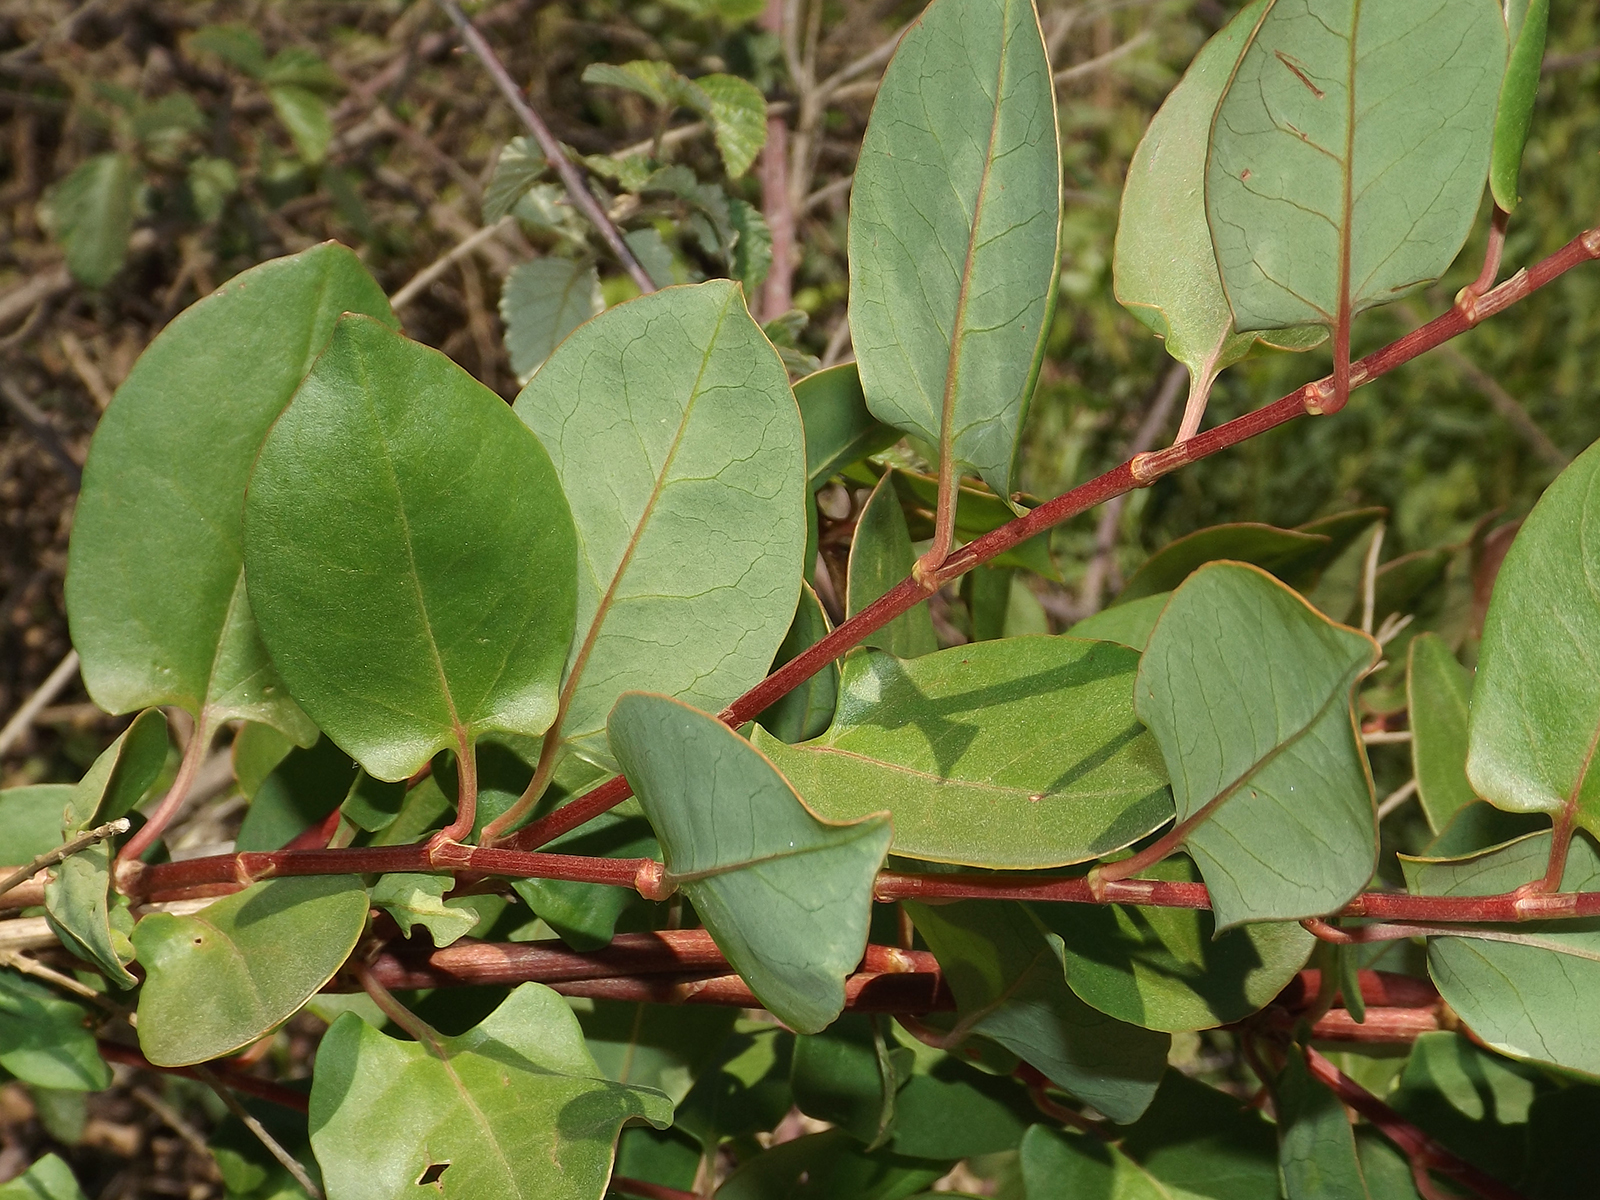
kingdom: Plantae
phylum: Tracheophyta
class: Magnoliopsida
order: Caryophyllales
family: Polygonaceae
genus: Muehlenbeckia
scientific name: Muehlenbeckia hastulata
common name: Wirevine
